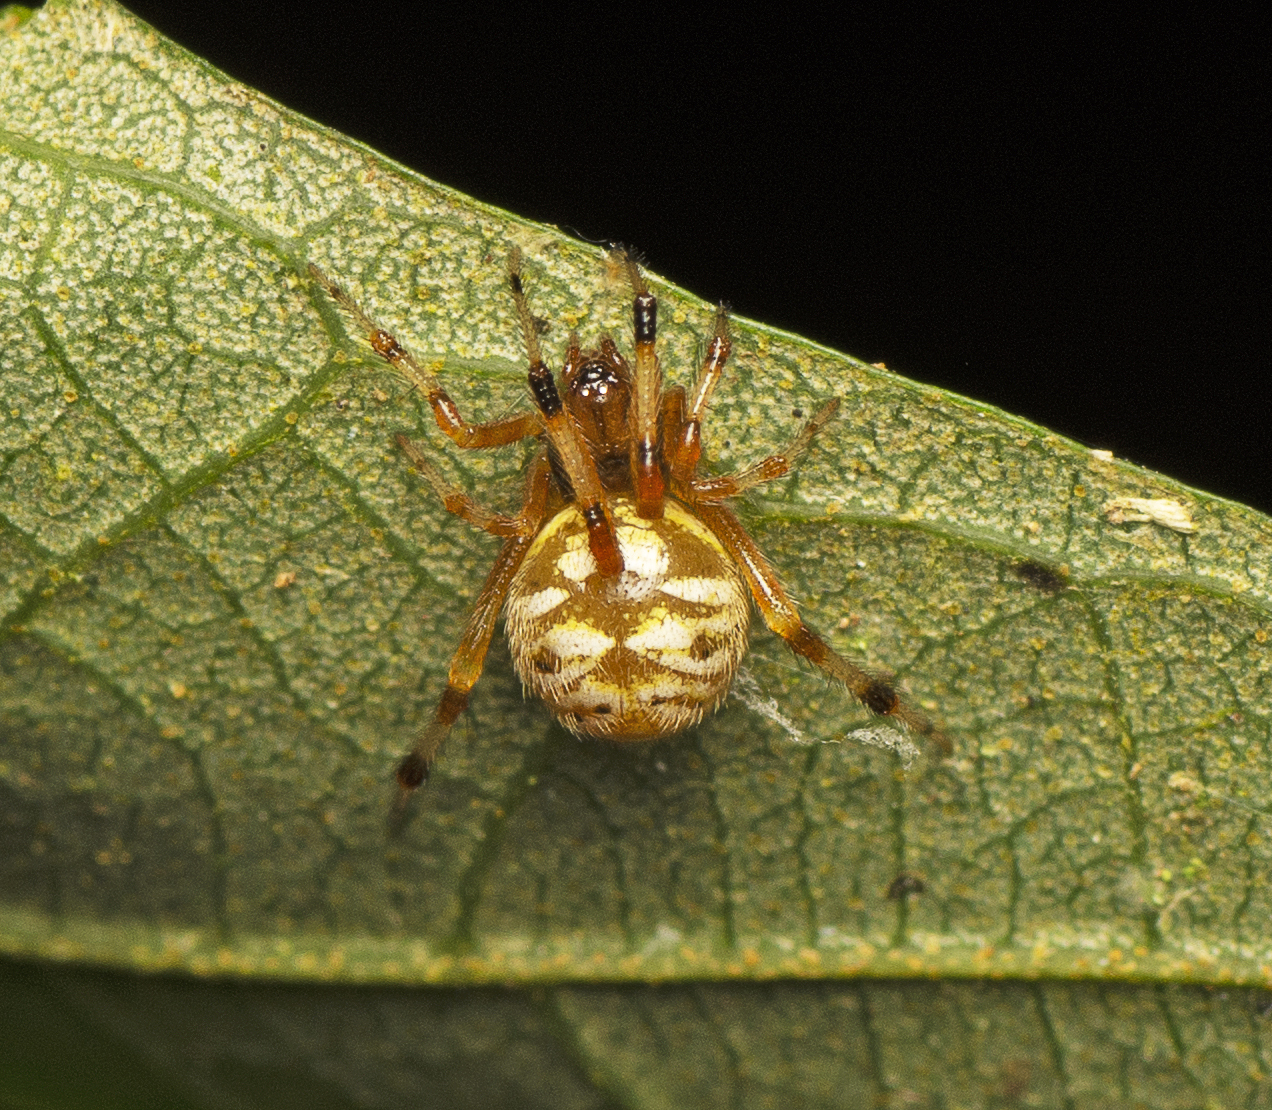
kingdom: Animalia
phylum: Arthropoda
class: Arachnida
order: Araneae
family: Theridiidae
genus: Theridion
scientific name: Theridion ventricosum
